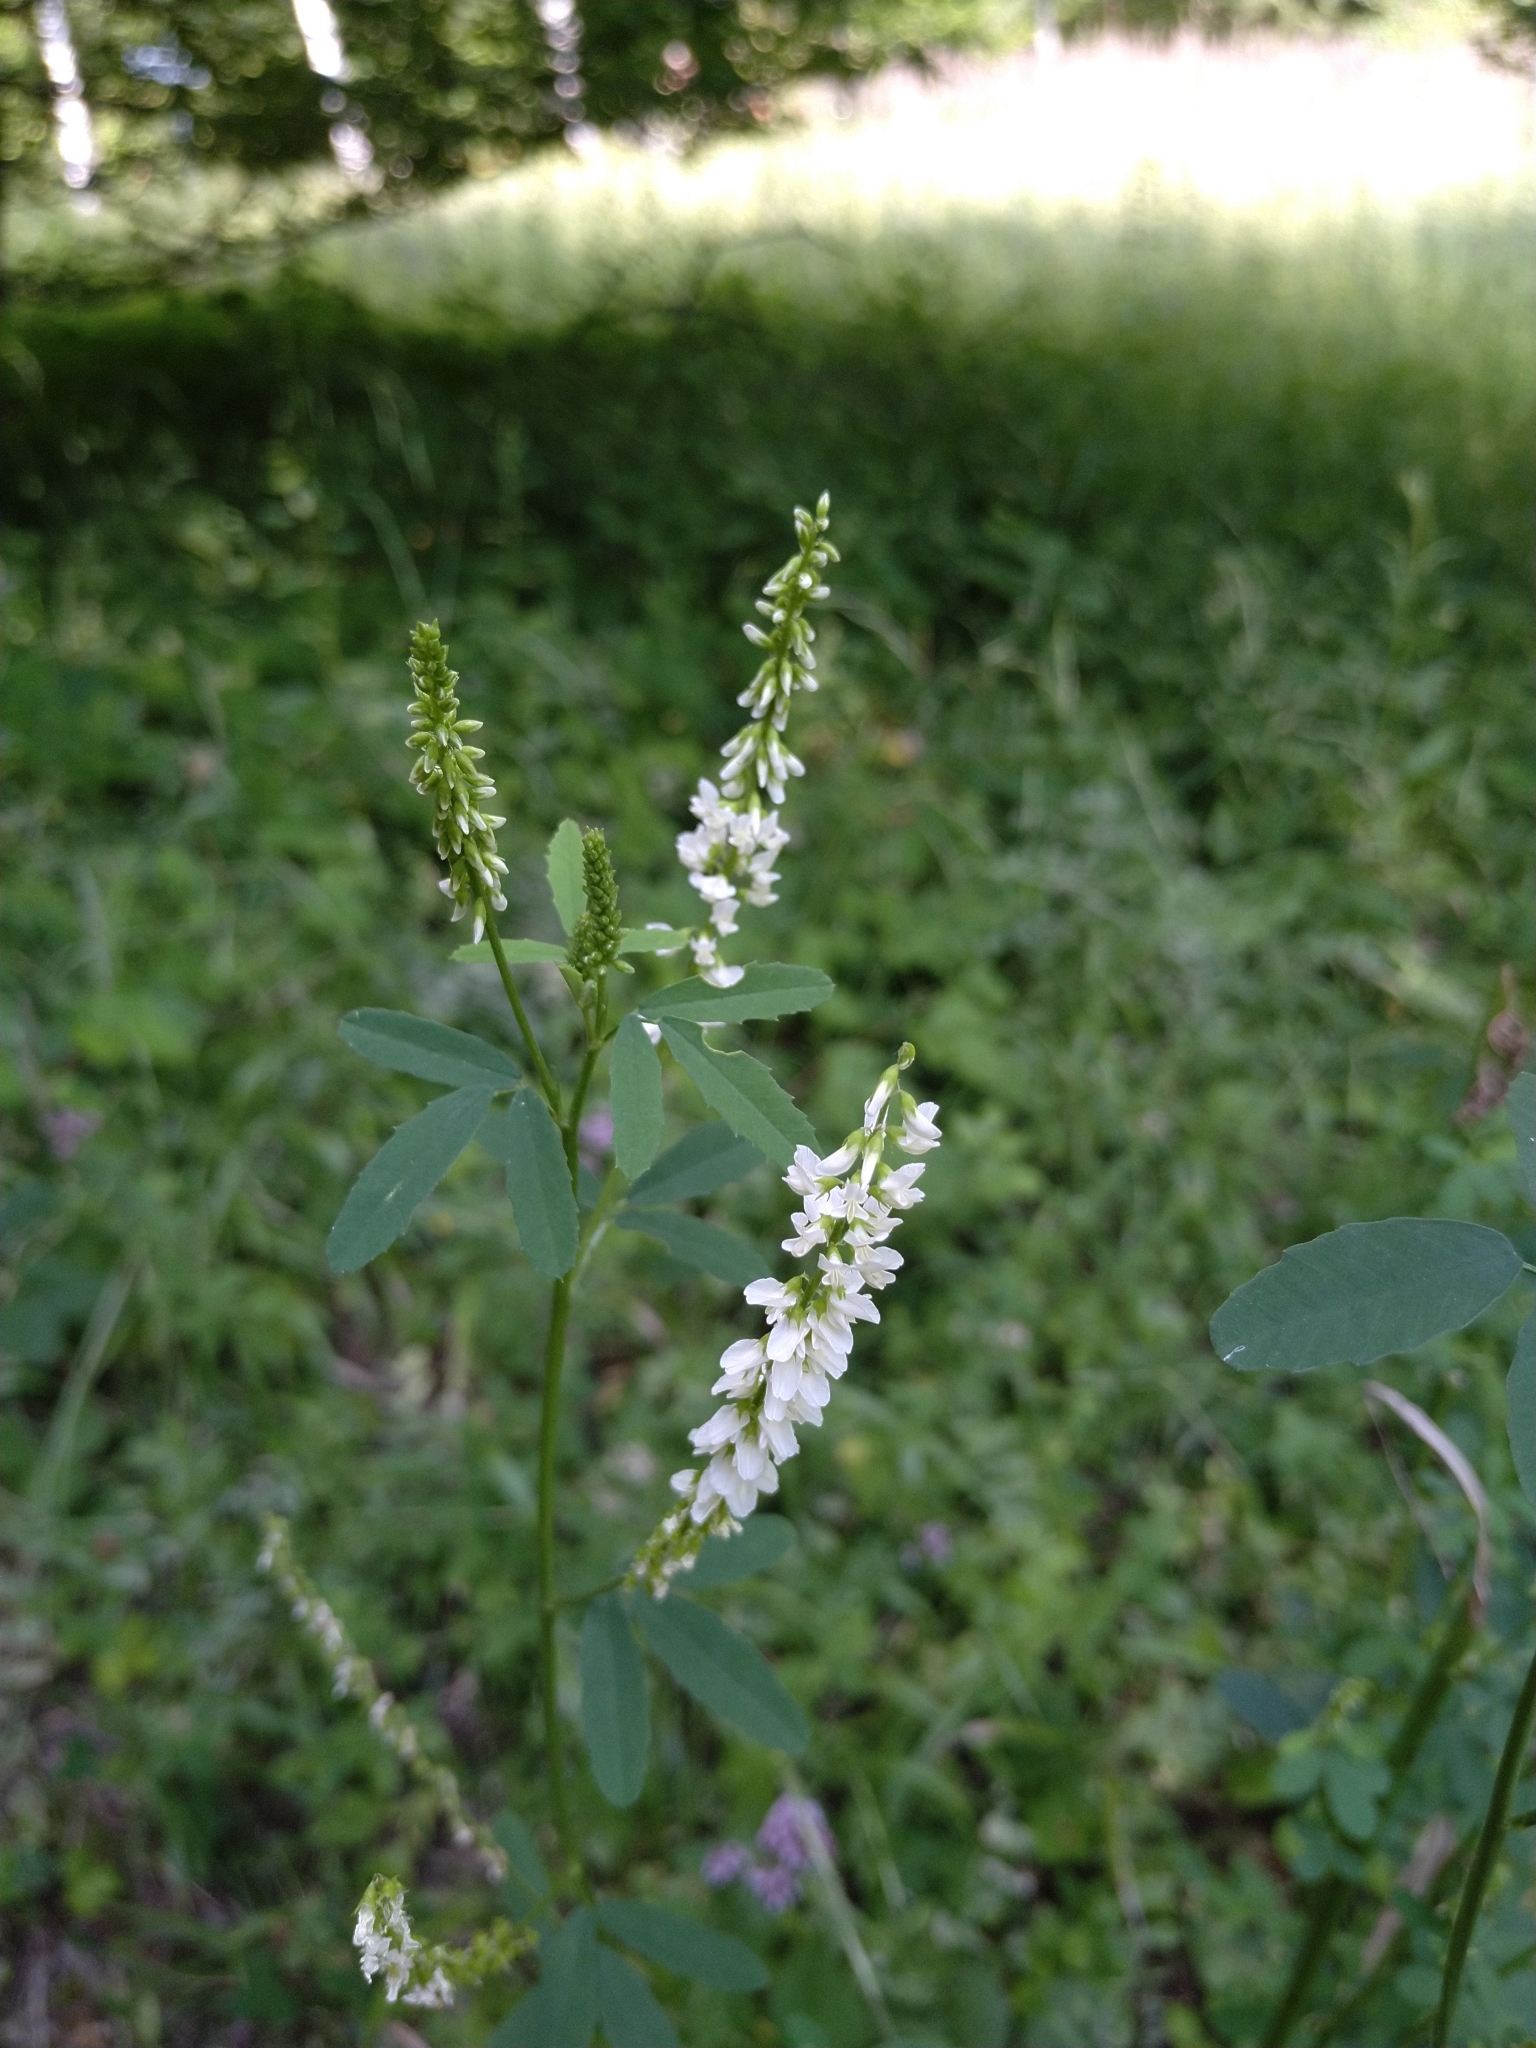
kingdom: Plantae
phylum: Tracheophyta
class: Magnoliopsida
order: Fabales
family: Fabaceae
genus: Melilotus
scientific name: Melilotus albus
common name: White melilot
